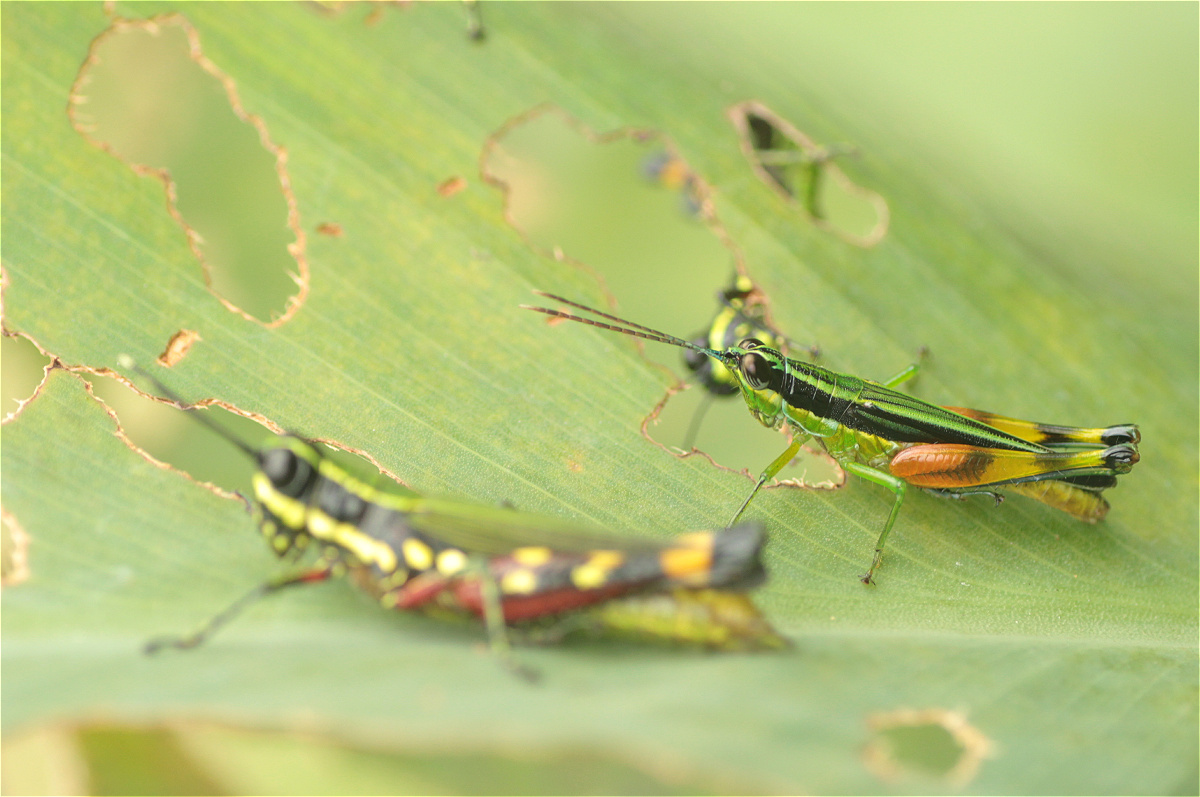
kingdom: Animalia
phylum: Arthropoda
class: Insecta
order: Orthoptera
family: Acrididae
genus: Stenopola
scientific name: Stenopola boliviana
